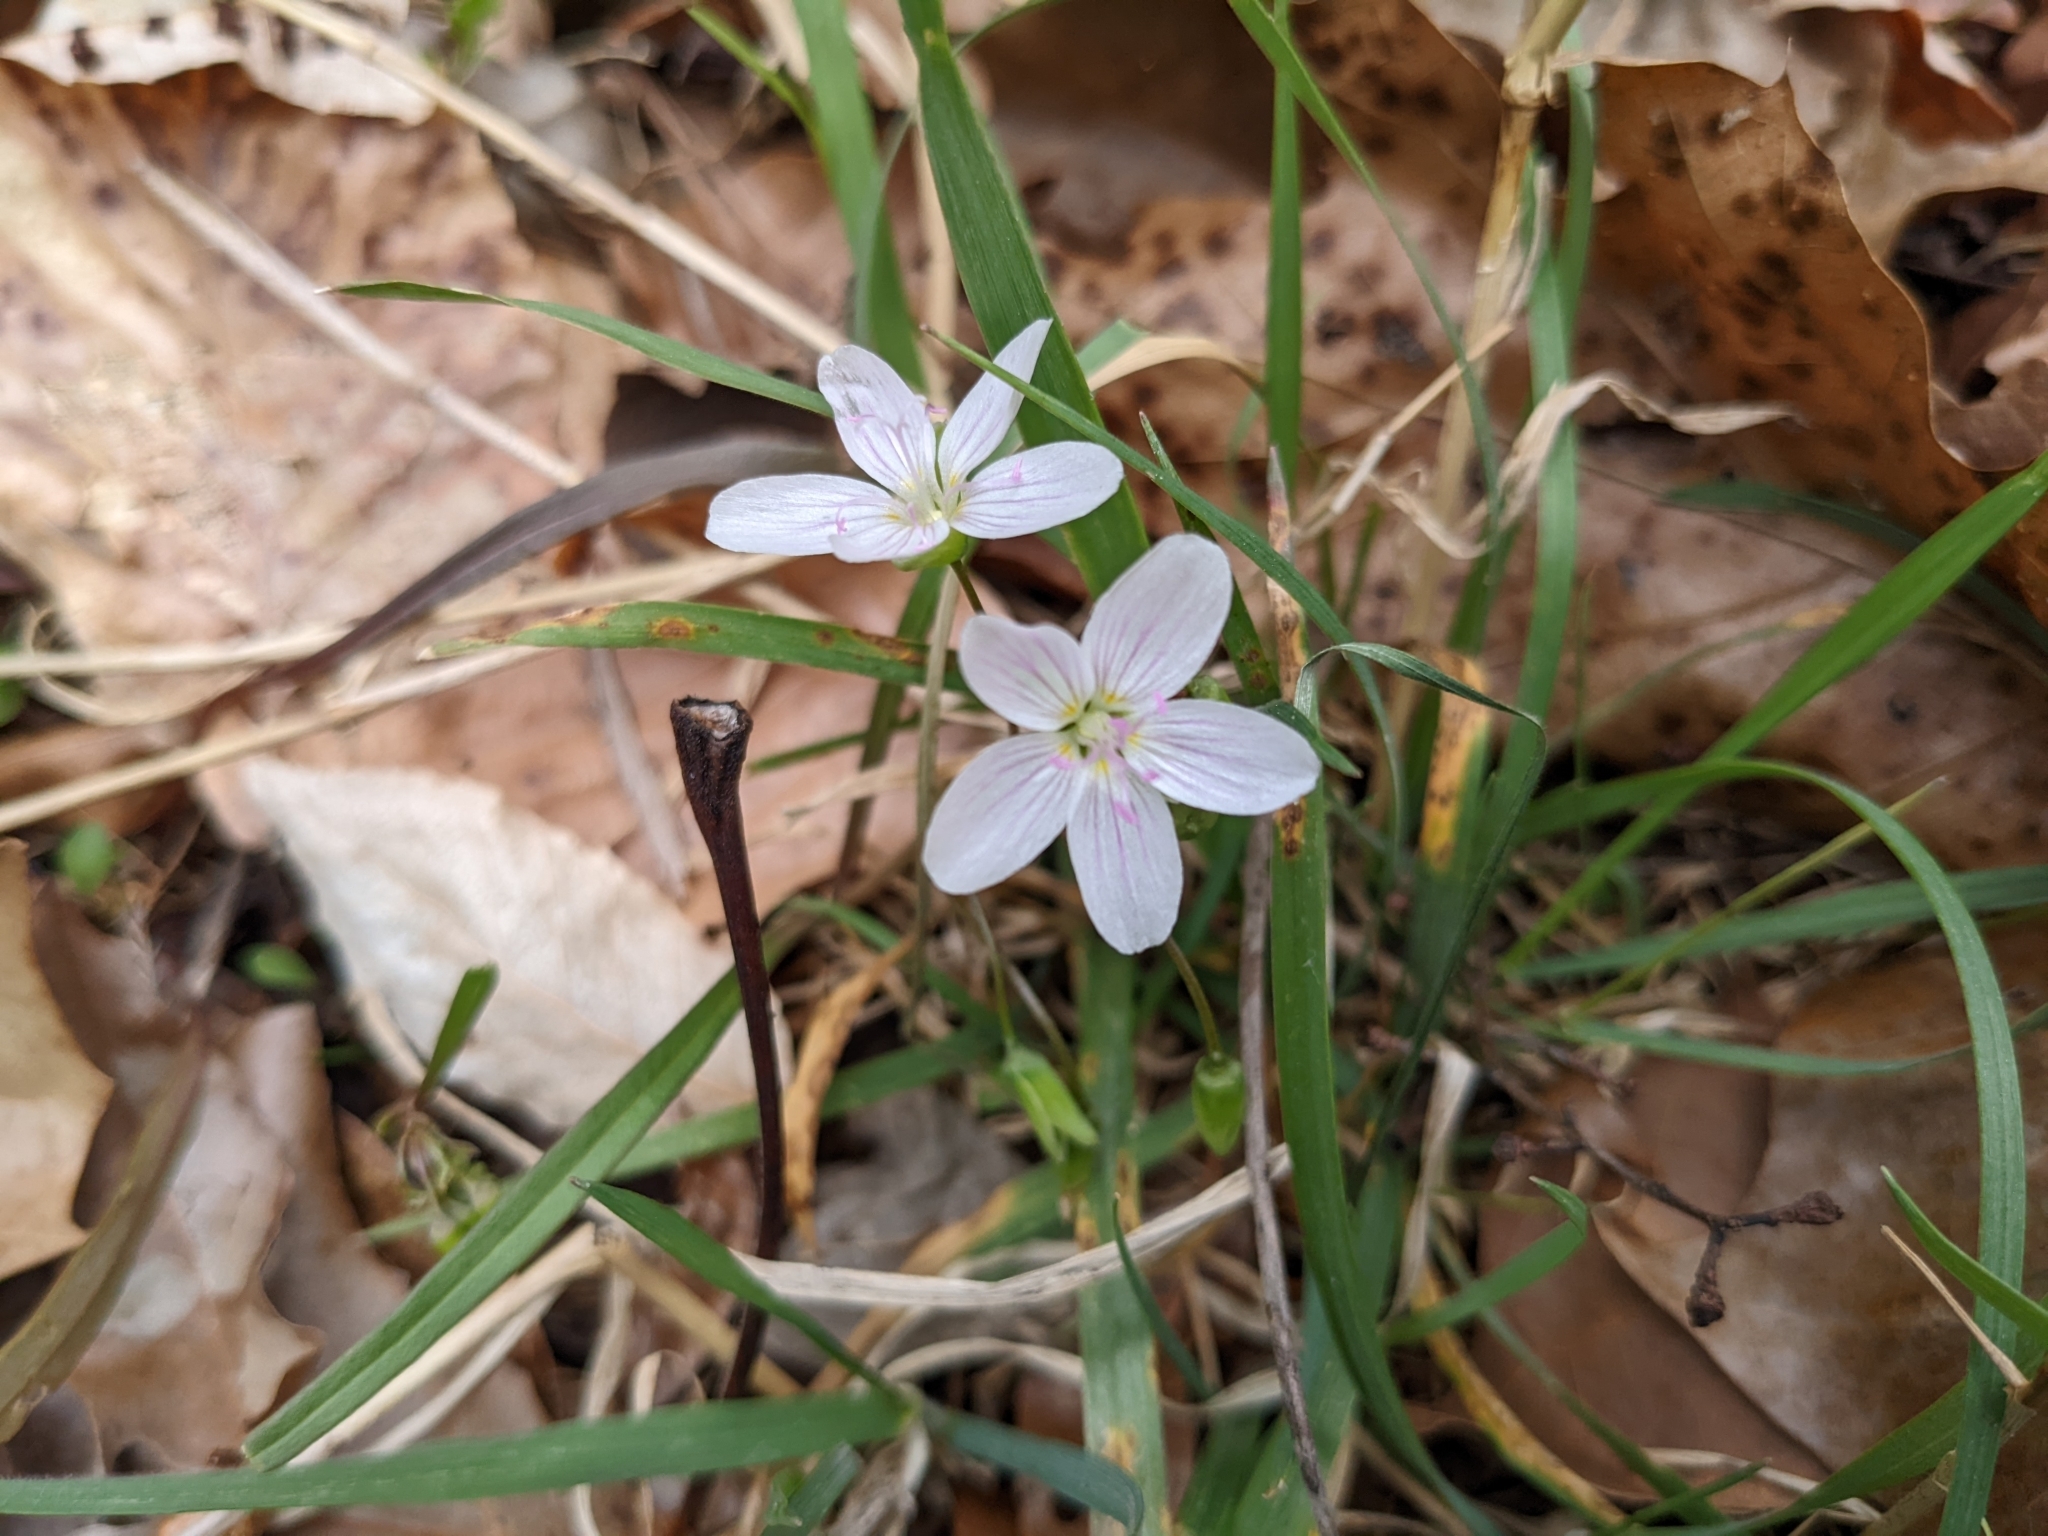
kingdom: Plantae
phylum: Tracheophyta
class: Magnoliopsida
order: Caryophyllales
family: Montiaceae
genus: Claytonia
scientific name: Claytonia virginica
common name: Virginia springbeauty
